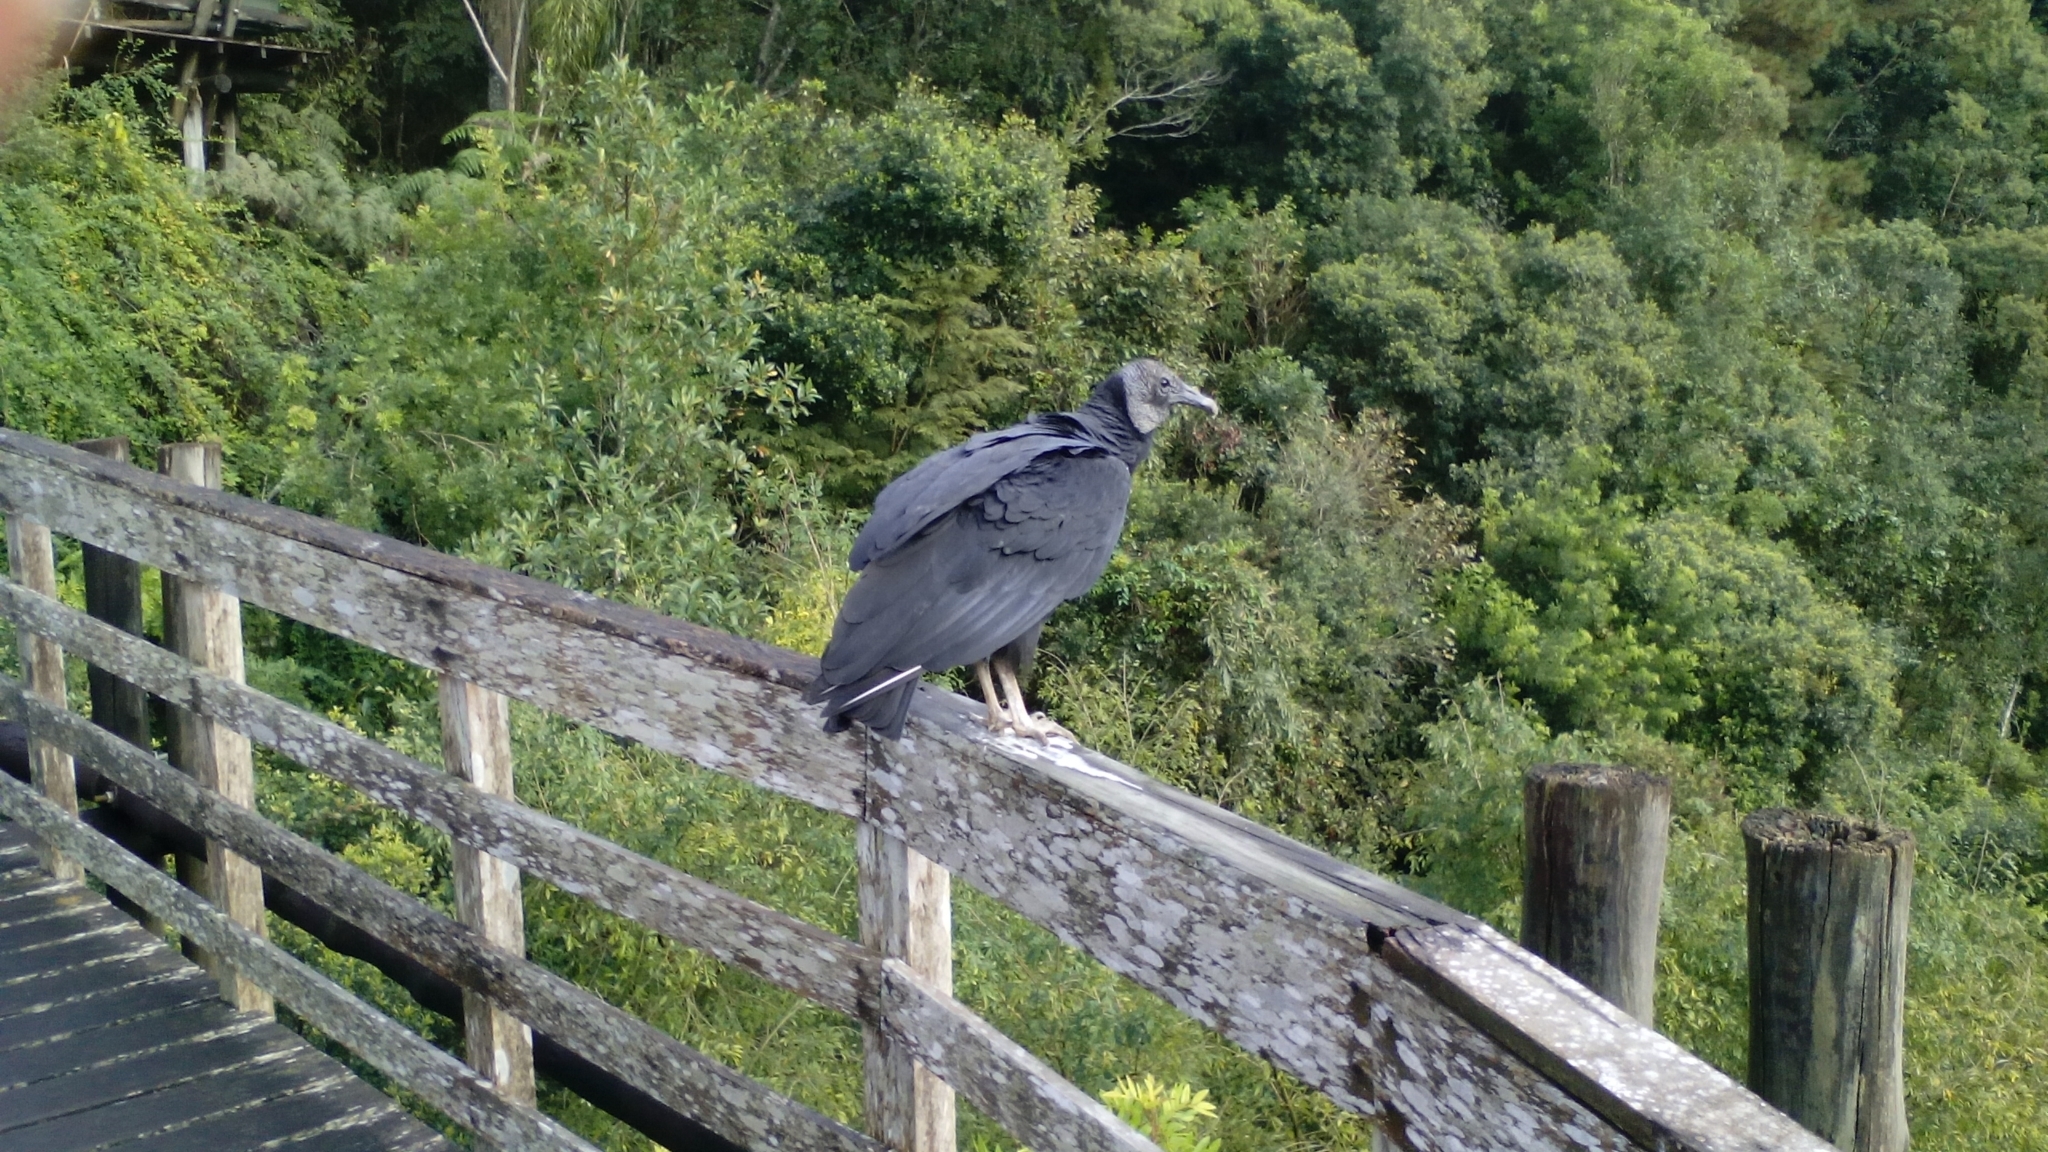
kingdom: Animalia
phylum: Chordata
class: Aves
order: Accipitriformes
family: Cathartidae
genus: Coragyps
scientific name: Coragyps atratus
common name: Black vulture
